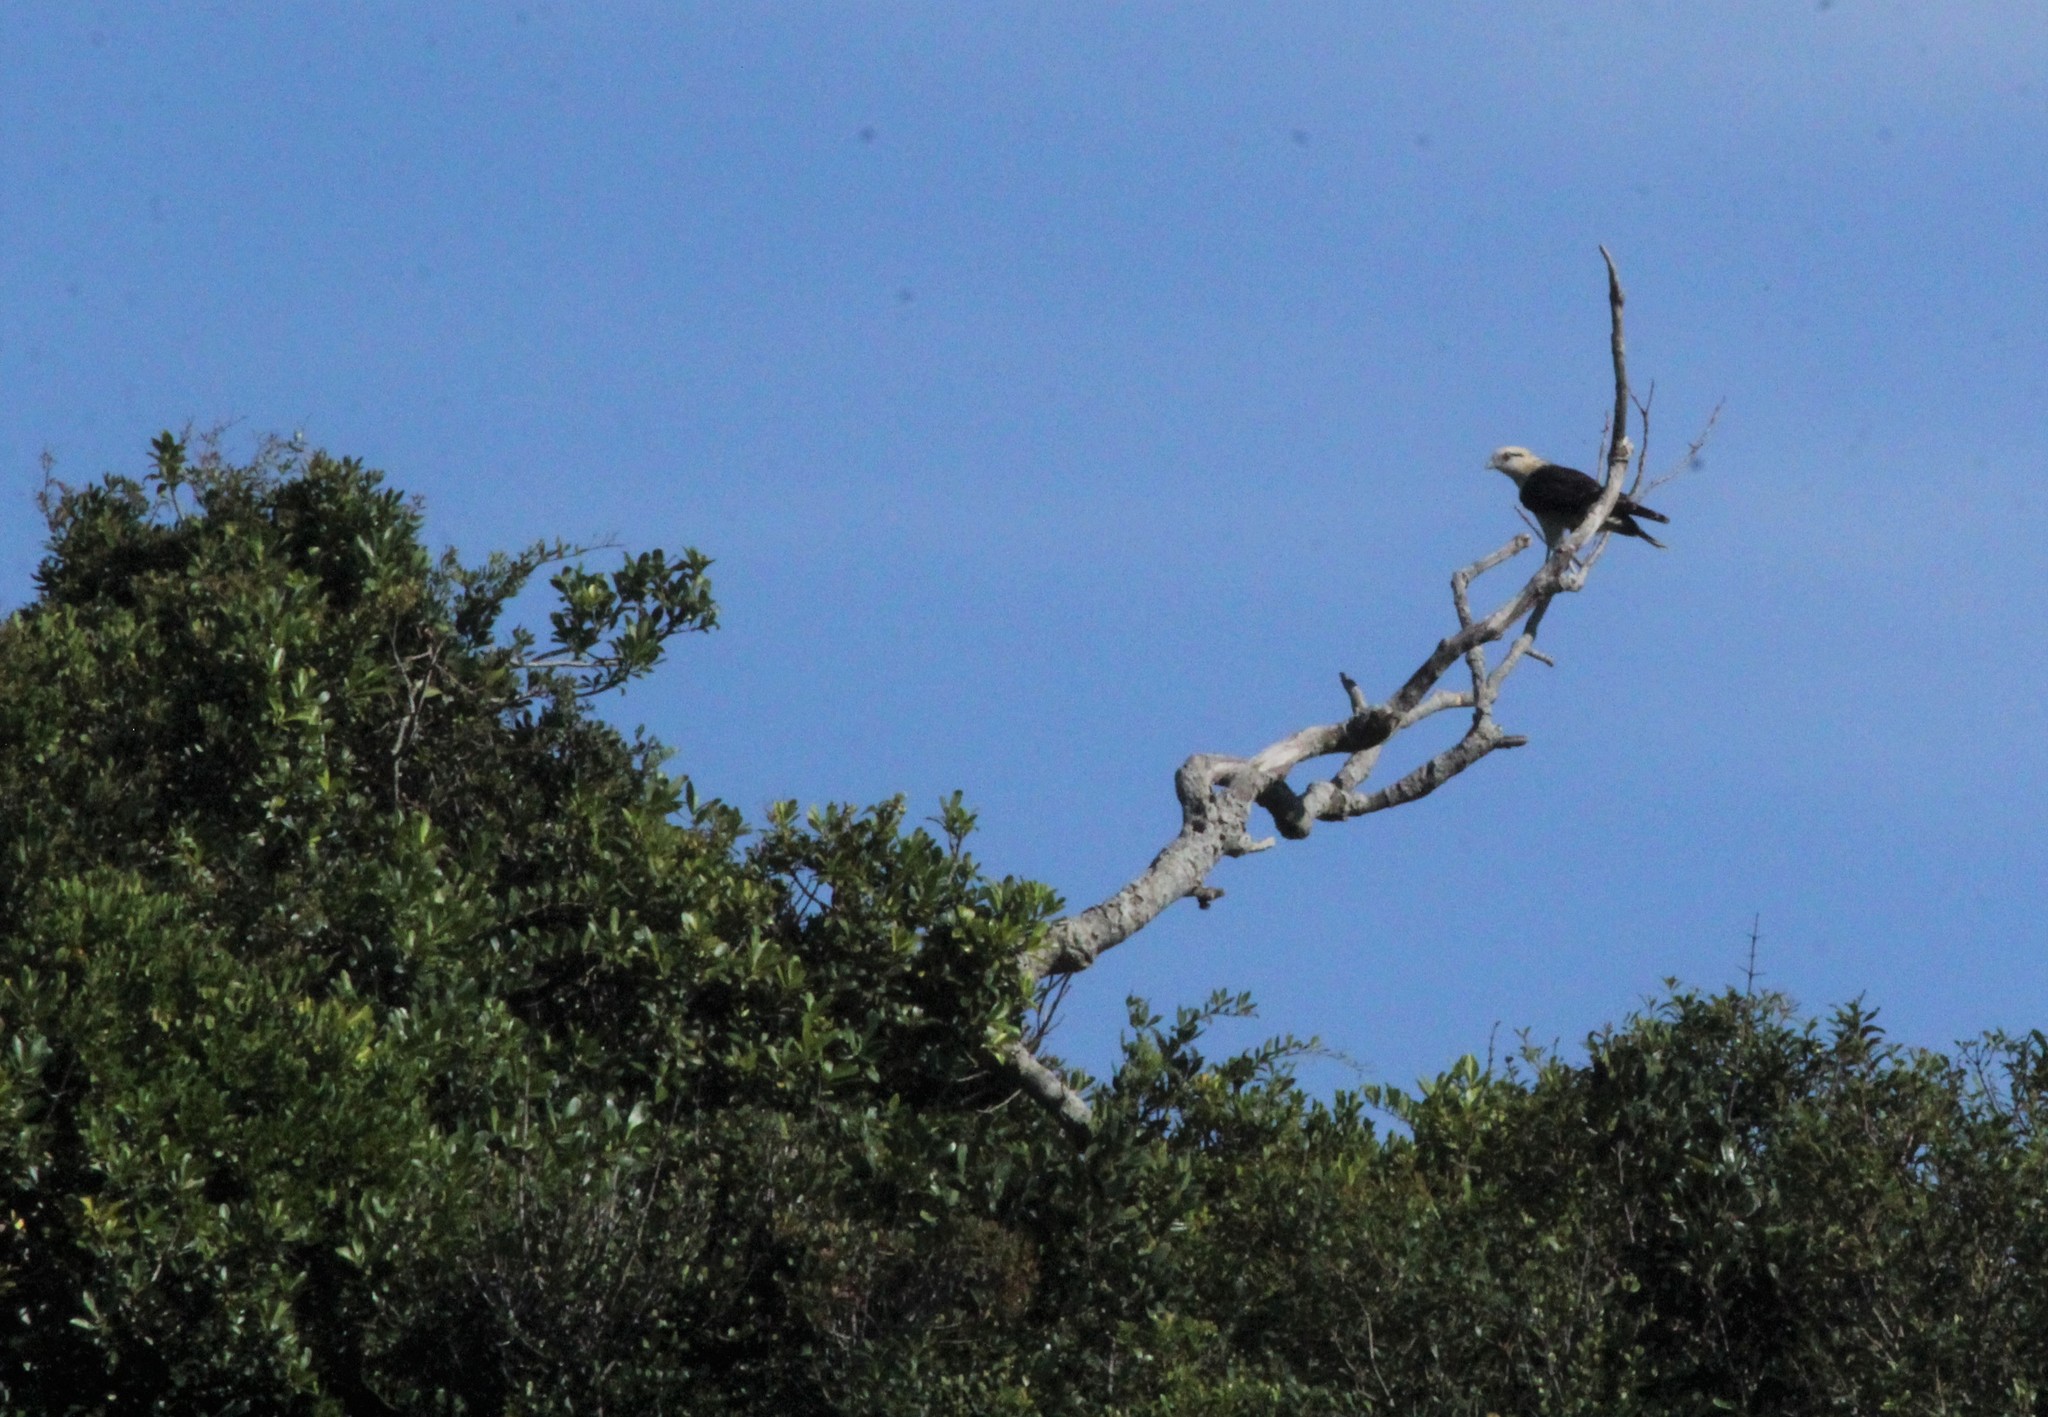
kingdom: Animalia
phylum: Chordata
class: Aves
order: Falconiformes
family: Falconidae
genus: Daptrius
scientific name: Daptrius
